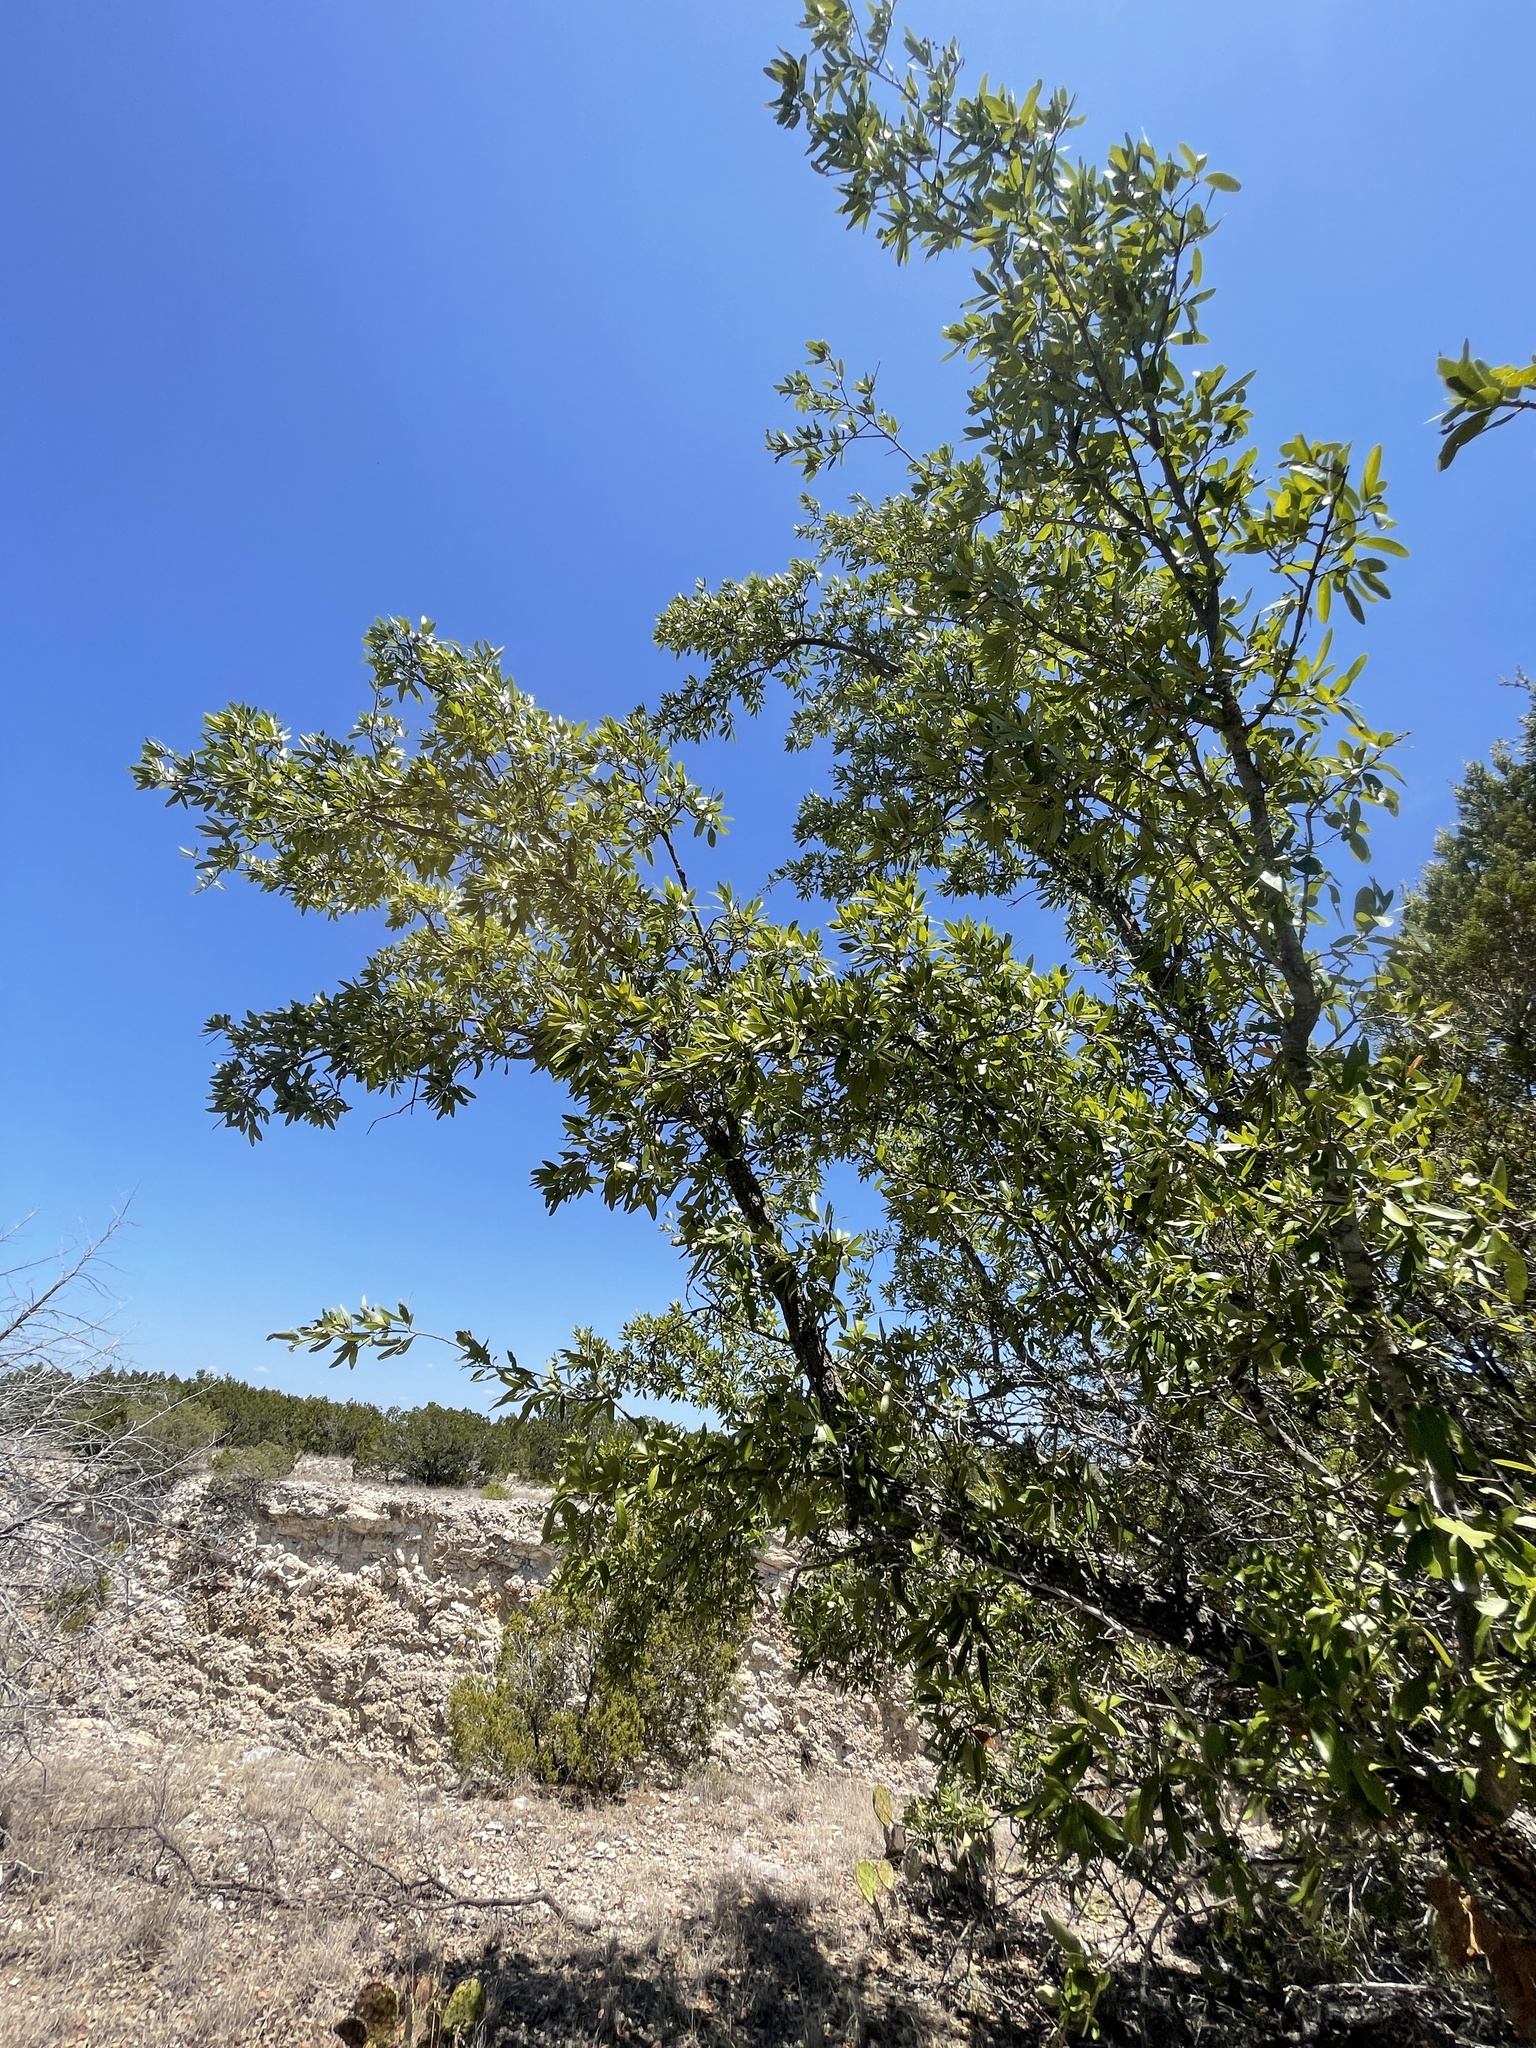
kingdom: Plantae
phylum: Tracheophyta
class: Magnoliopsida
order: Fagales
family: Fagaceae
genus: Quercus
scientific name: Quercus fusiformis
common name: Texas live oak
